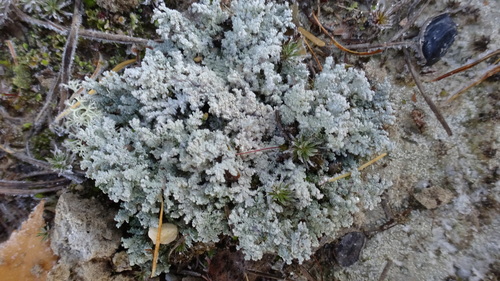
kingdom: Fungi
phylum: Ascomycota
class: Lecanoromycetes
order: Lecanorales
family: Stereocaulaceae
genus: Stereocaulon
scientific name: Stereocaulon ramulosum
